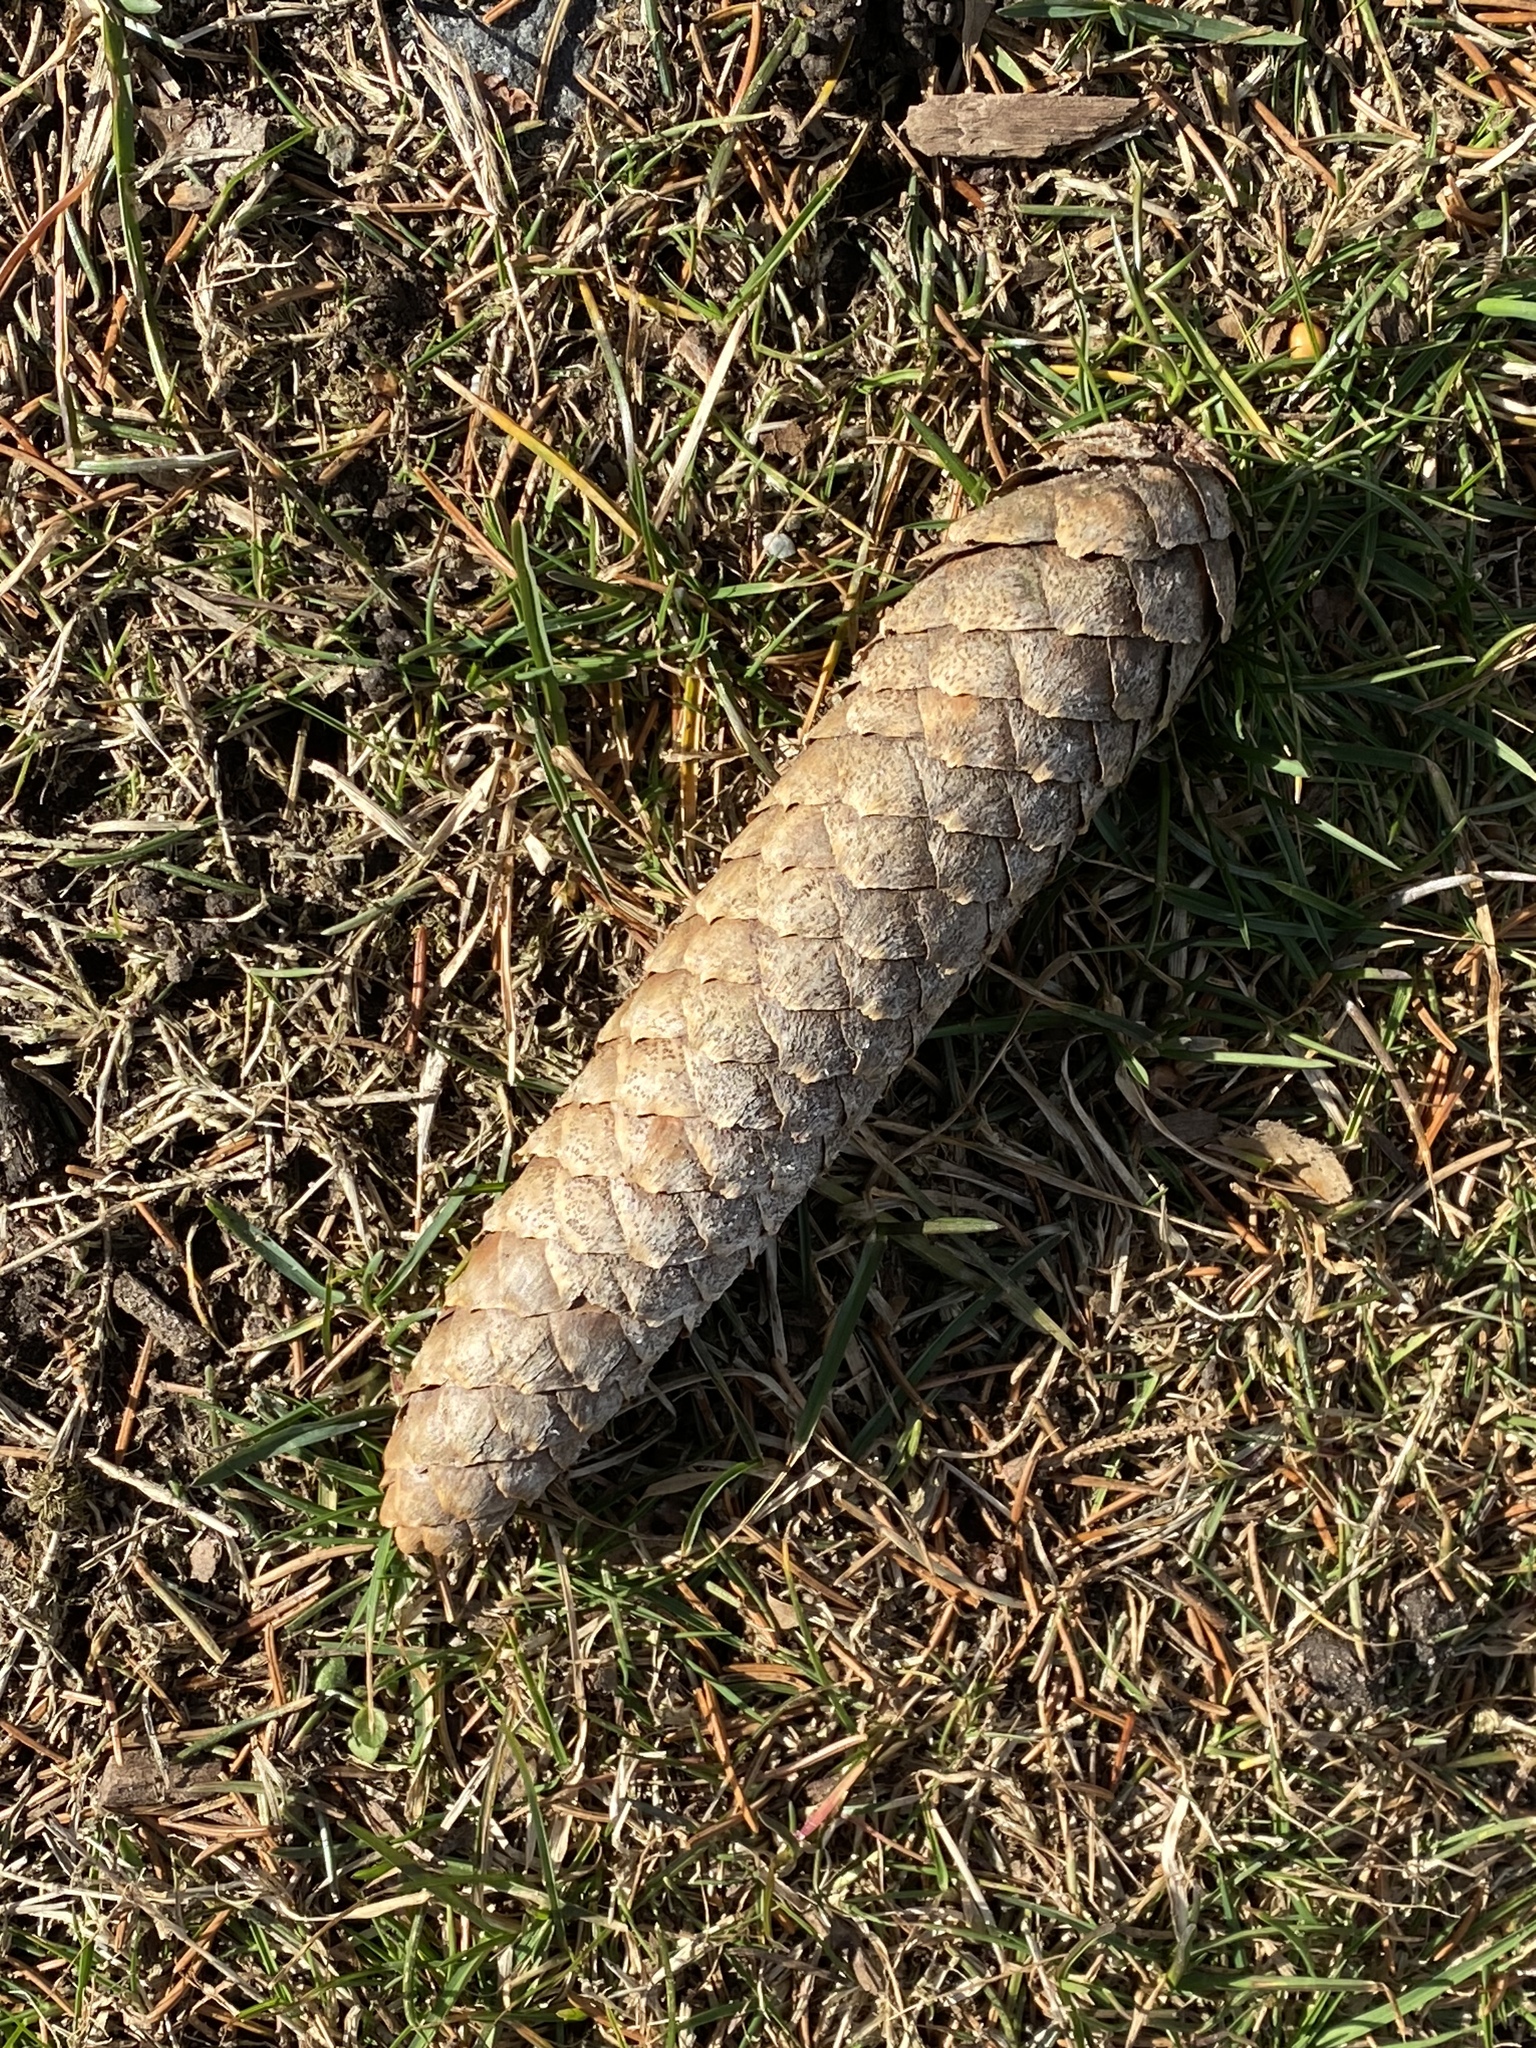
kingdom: Plantae
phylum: Tracheophyta
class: Pinopsida
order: Pinales
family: Pinaceae
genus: Picea
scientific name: Picea abies
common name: Norway spruce
